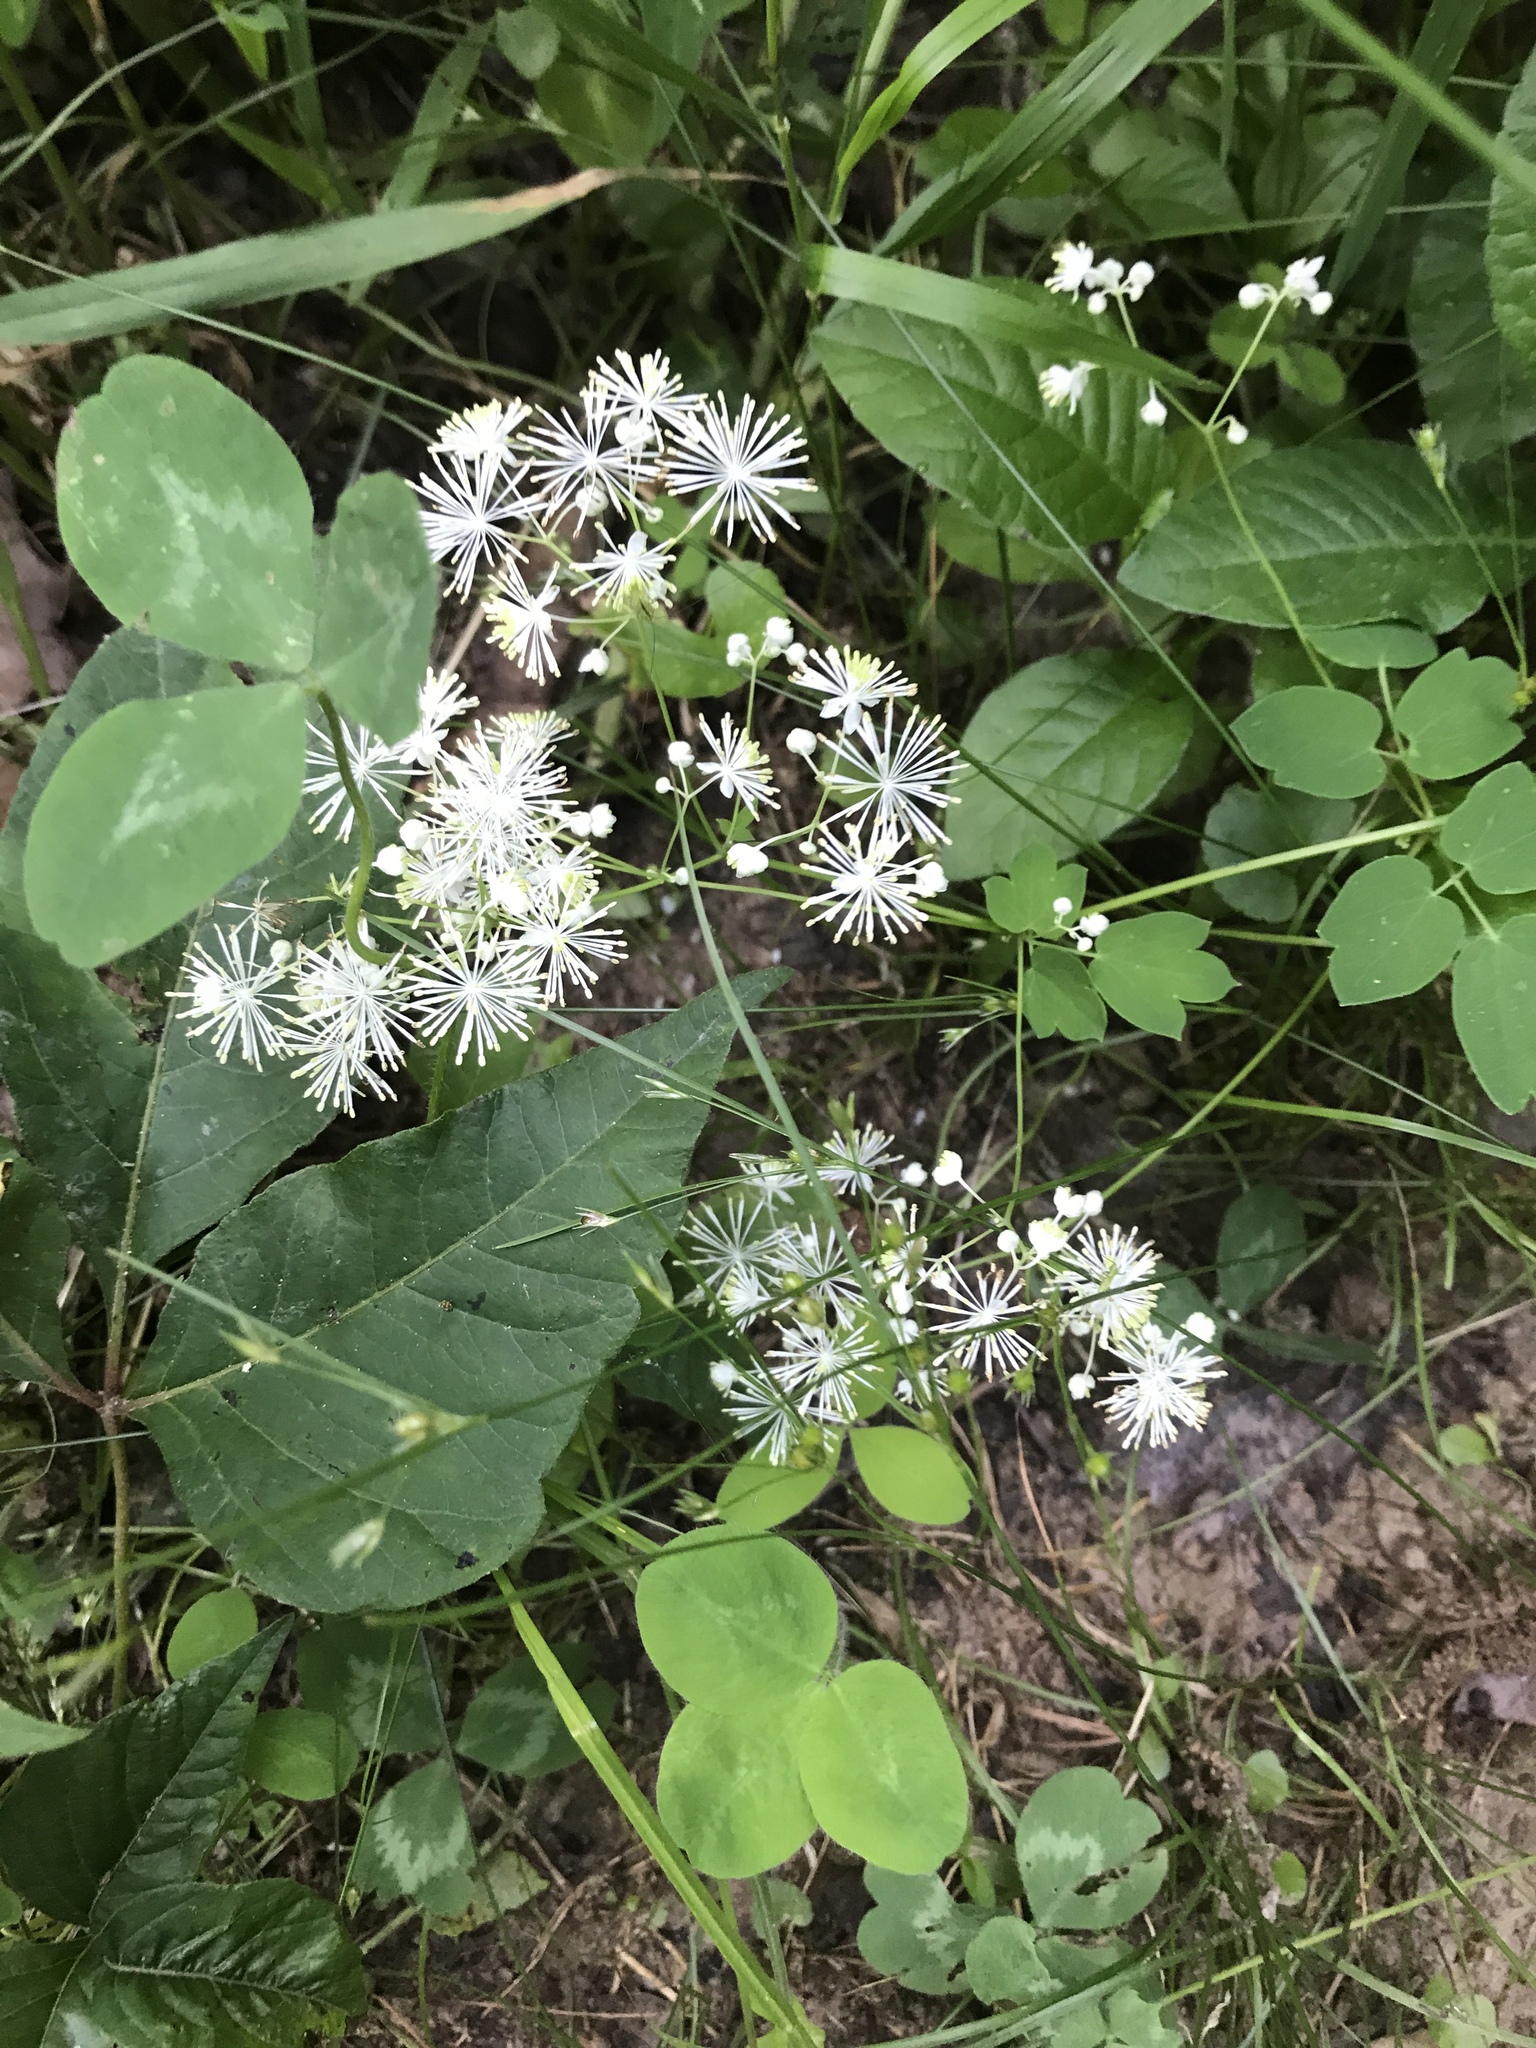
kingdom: Plantae
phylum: Tracheophyta
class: Magnoliopsida
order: Ranunculales
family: Ranunculaceae
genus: Thalictrum
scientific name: Thalictrum pubescens
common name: King-of-the-meadow
